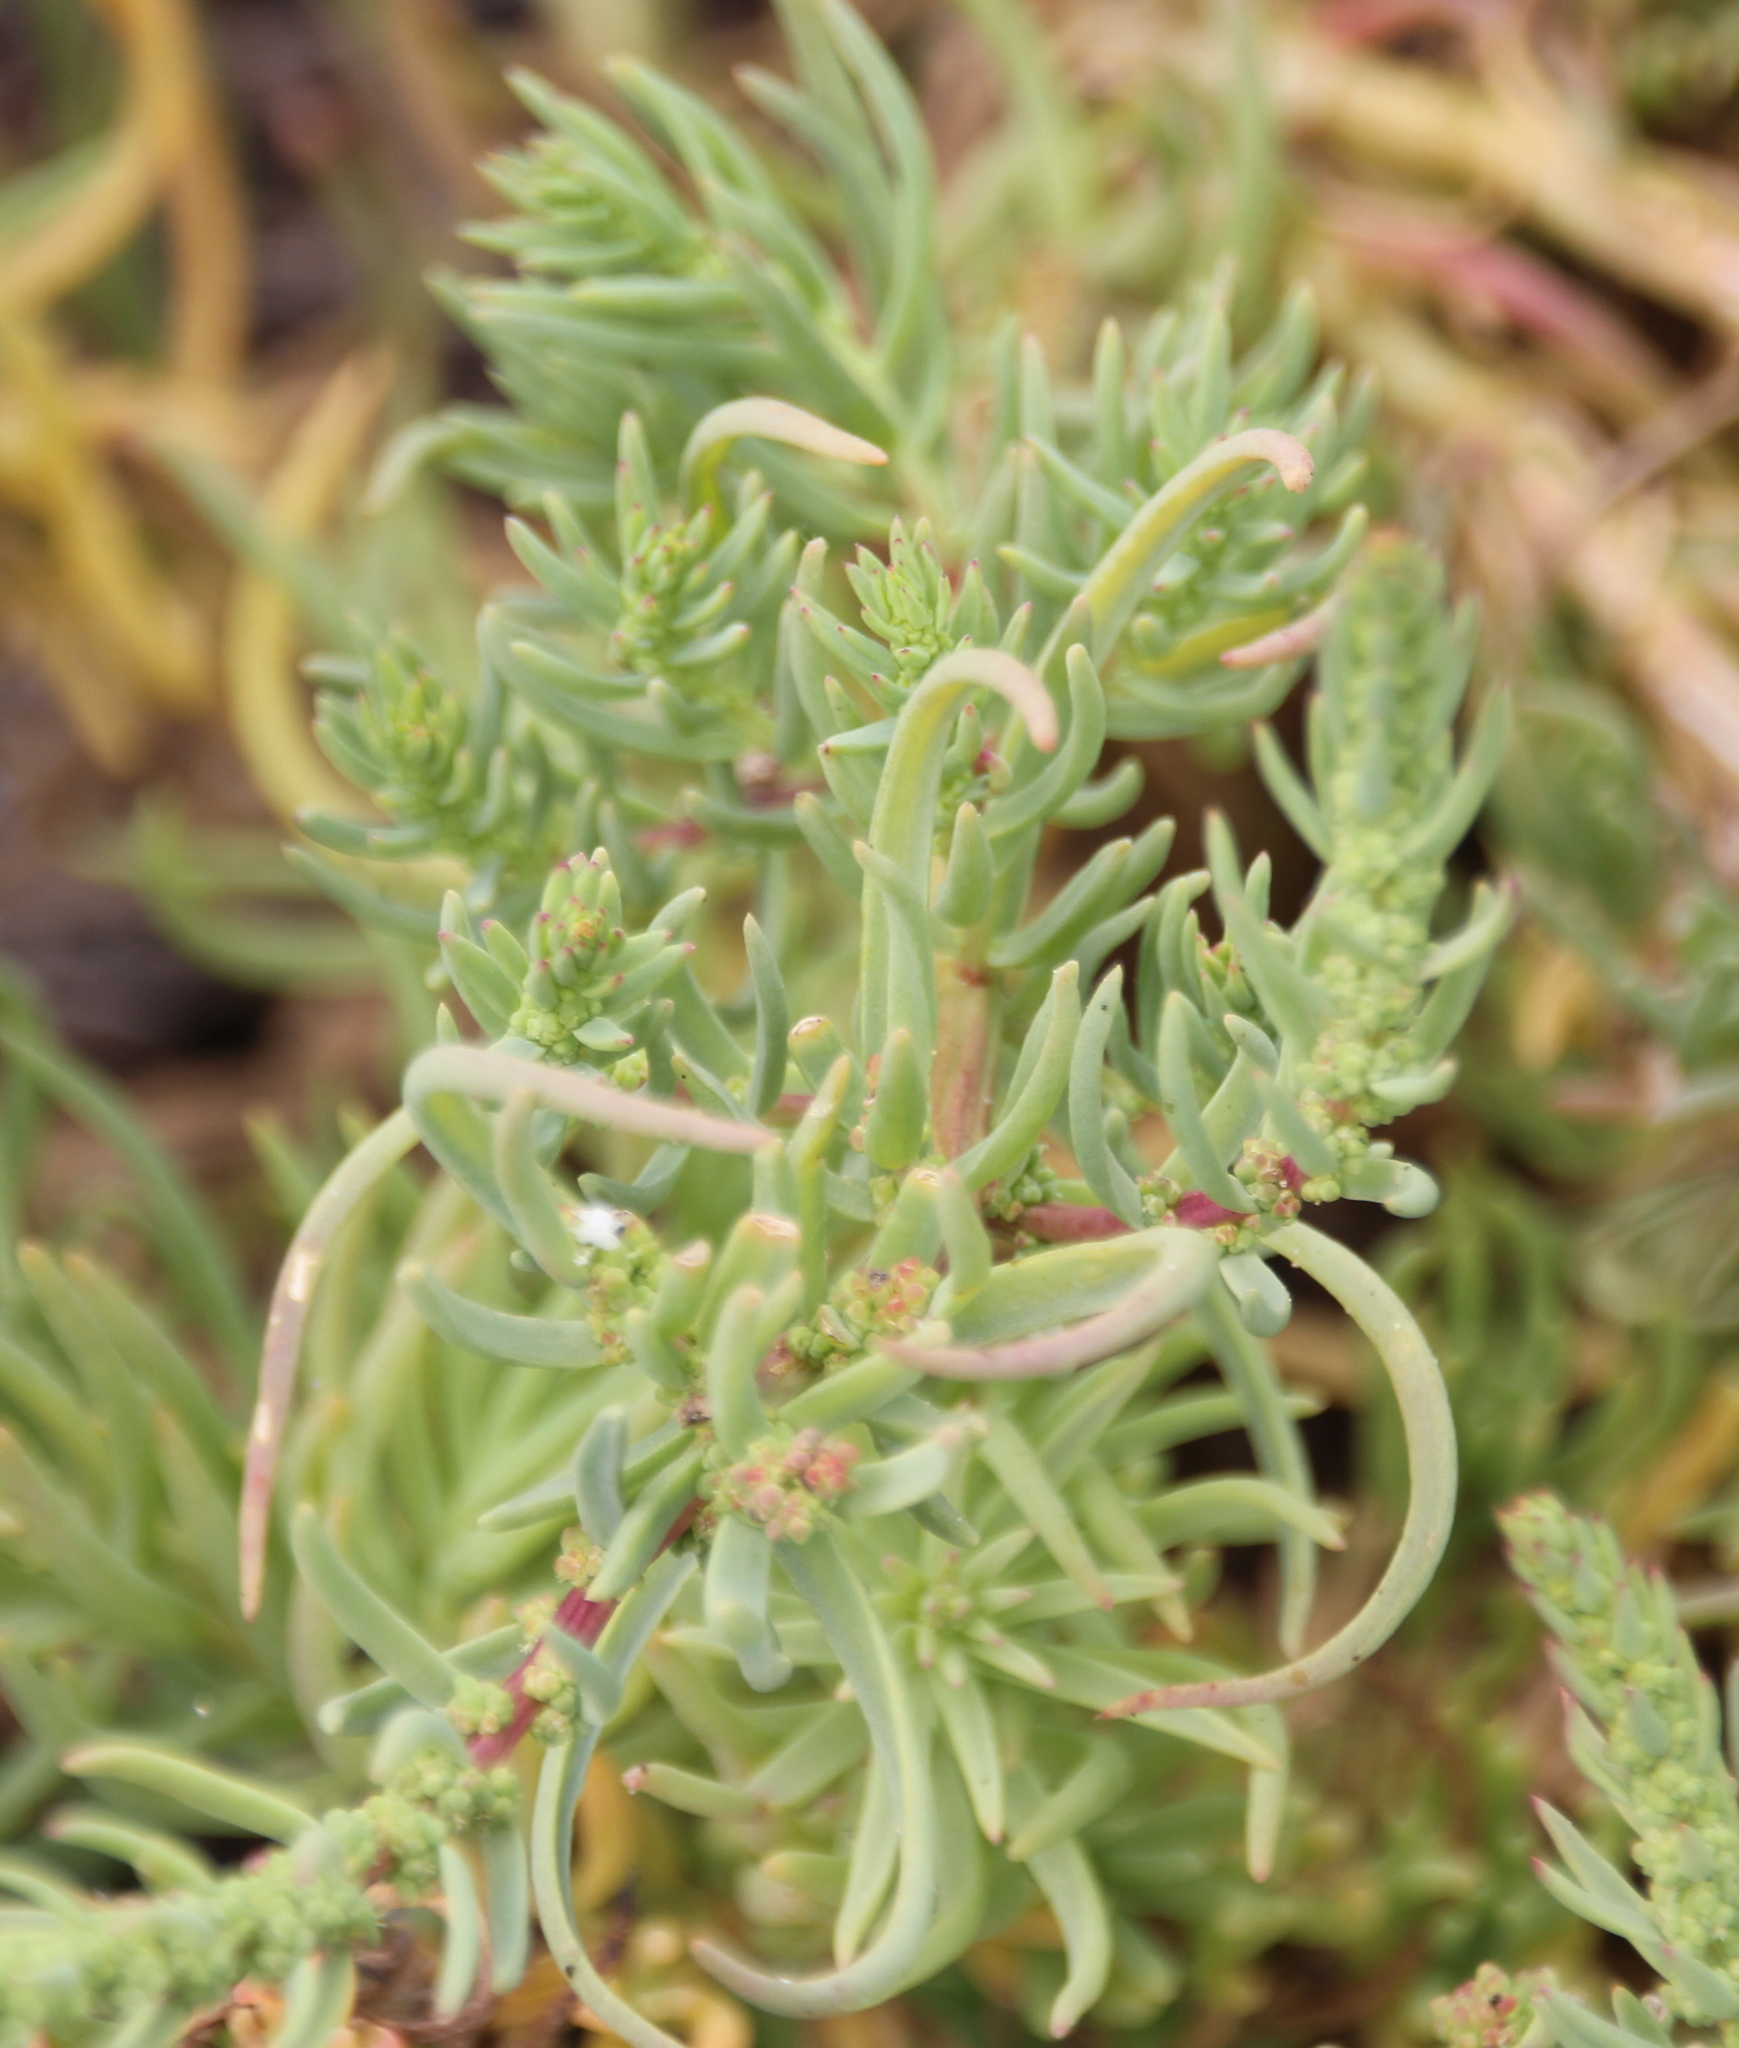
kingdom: Plantae
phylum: Tracheophyta
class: Magnoliopsida
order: Caryophyllales
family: Amaranthaceae
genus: Suaeda
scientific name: Suaeda esteroa
